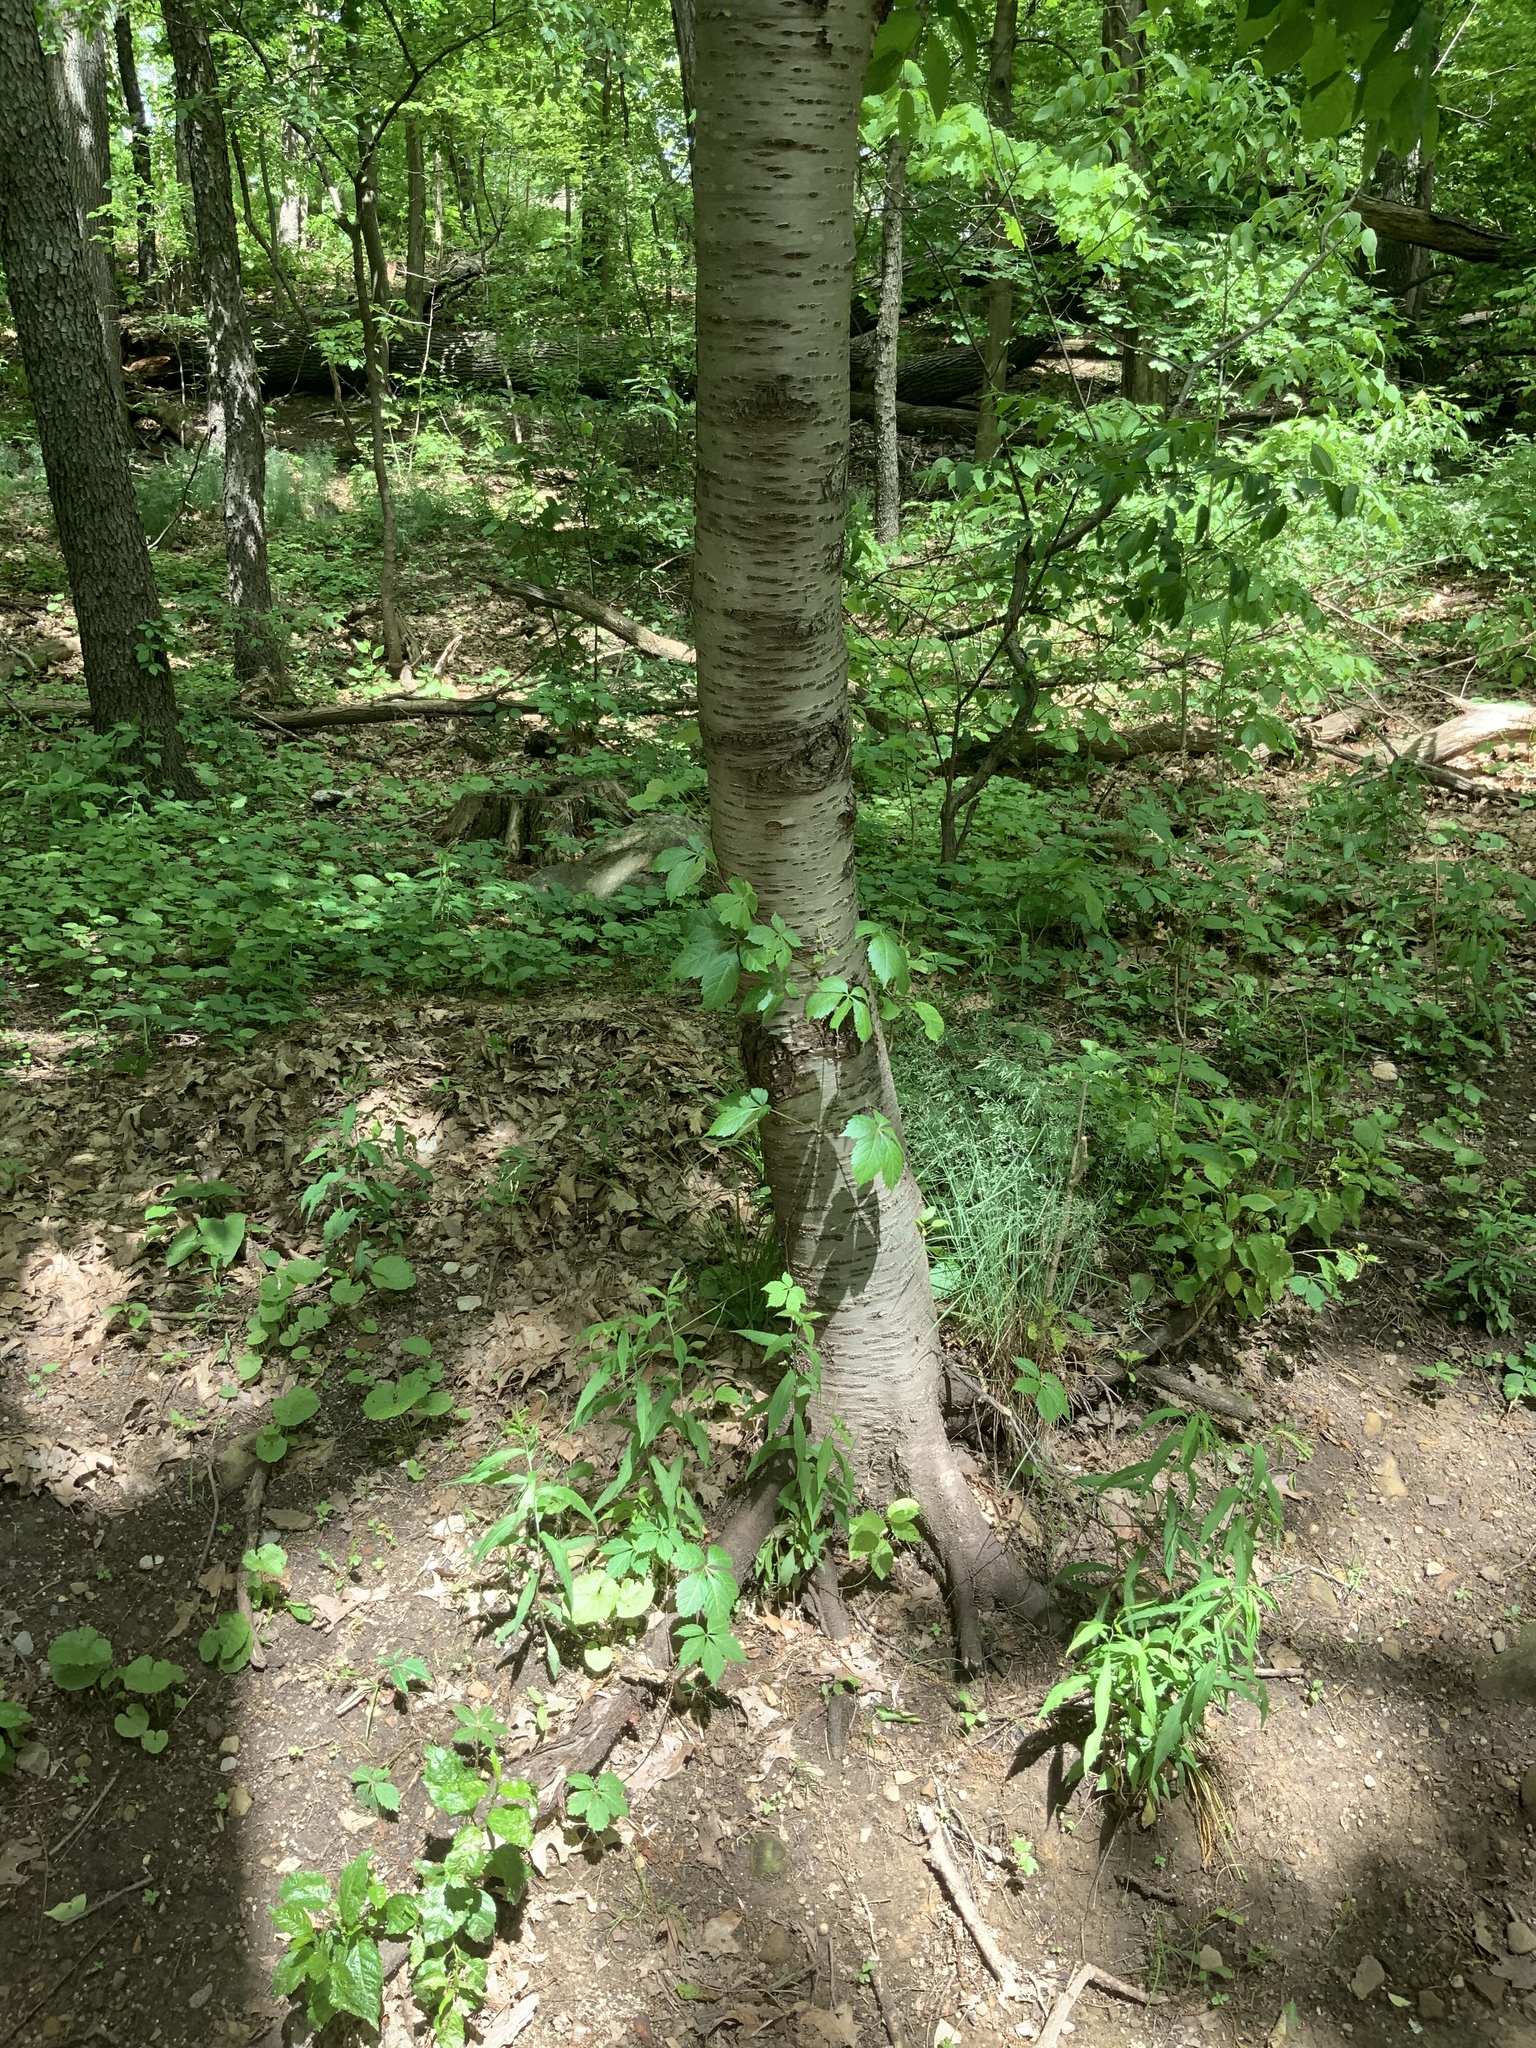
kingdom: Plantae
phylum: Tracheophyta
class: Magnoliopsida
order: Rosales
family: Rosaceae
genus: Prunus
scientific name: Prunus avium
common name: Sweet cherry
